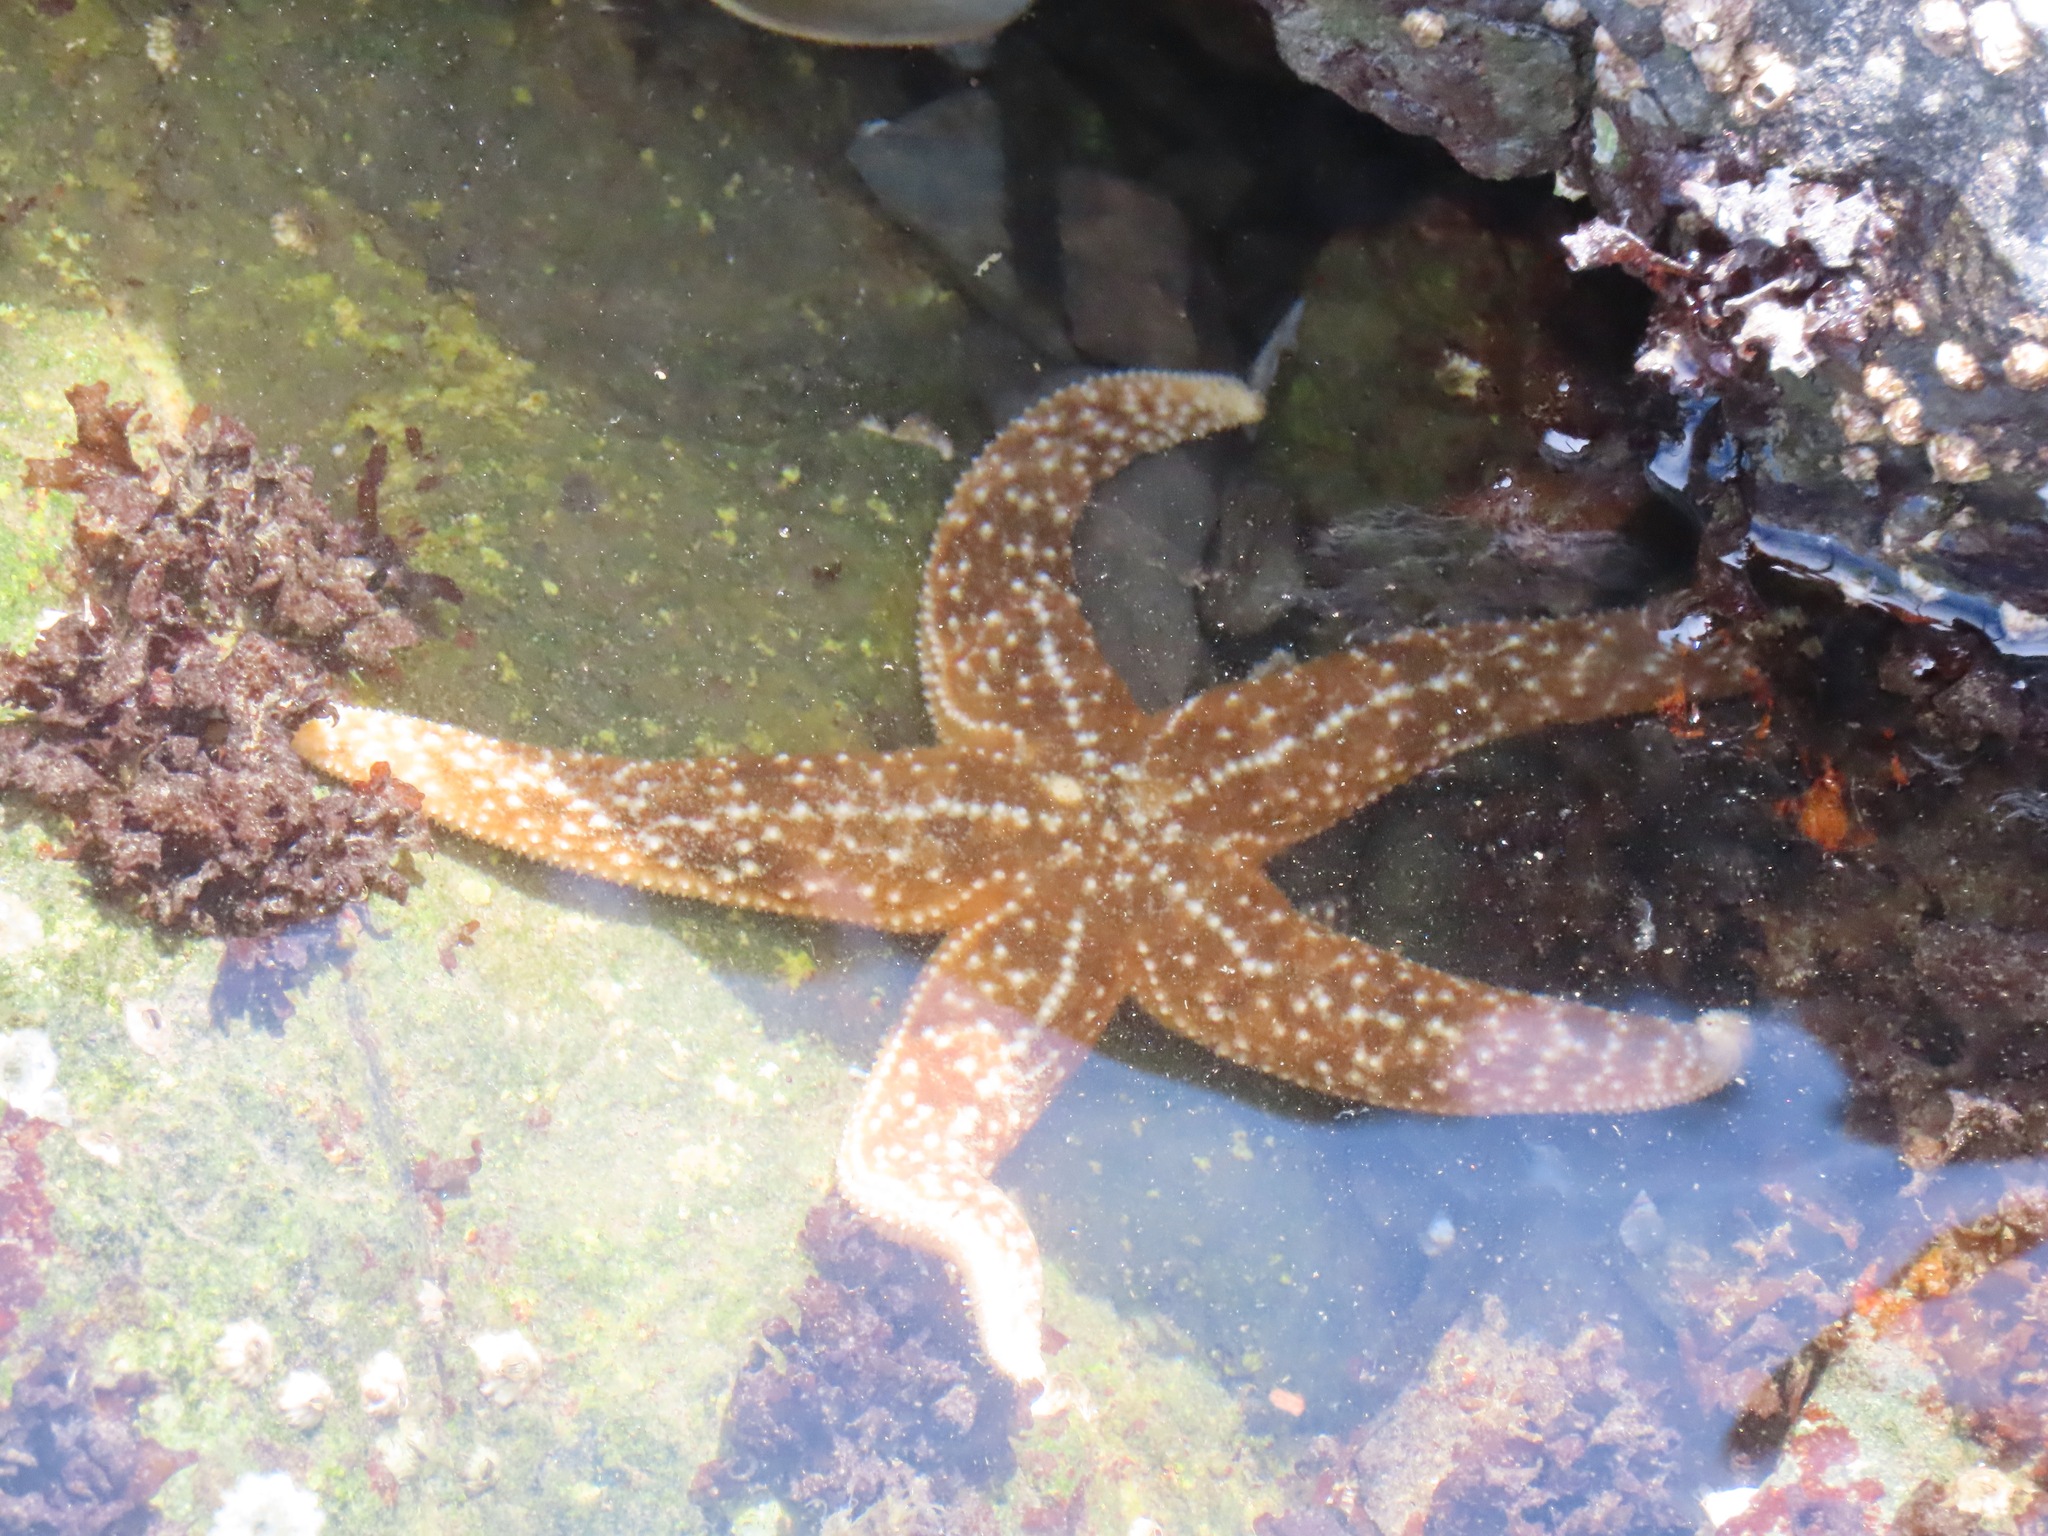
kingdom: Animalia
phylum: Echinodermata
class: Asteroidea
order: Forcipulatida
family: Asteriidae
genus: Evasterias
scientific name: Evasterias troschelii
